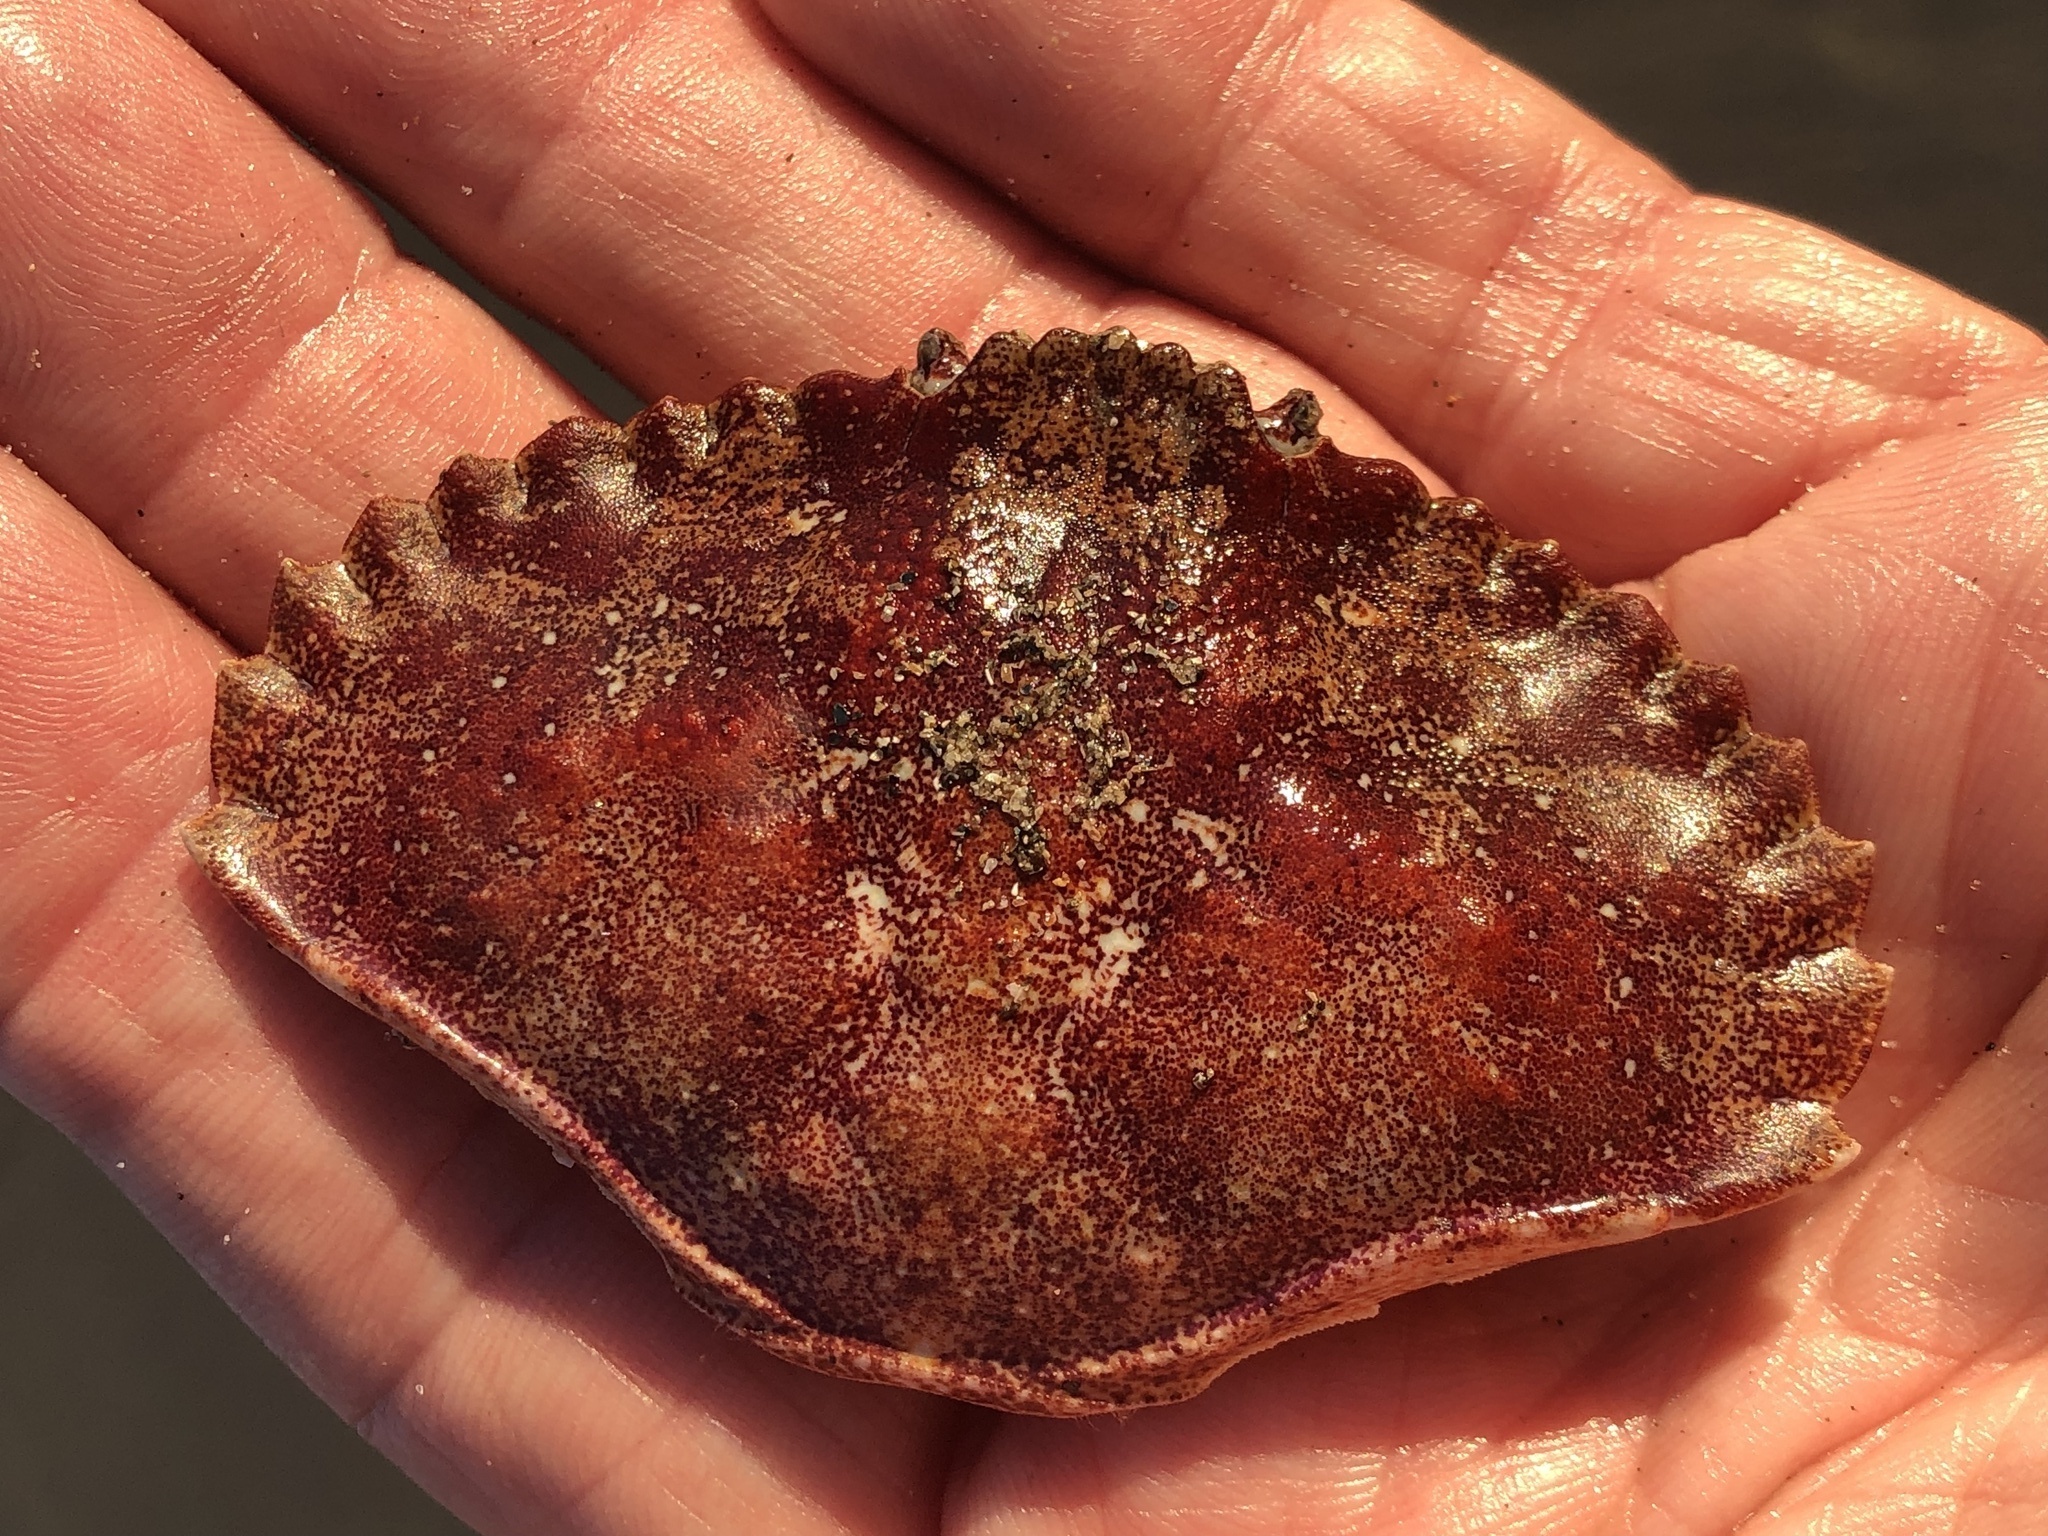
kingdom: Animalia
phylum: Arthropoda
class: Malacostraca
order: Decapoda
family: Cancridae
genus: Cancer
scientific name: Cancer productus
